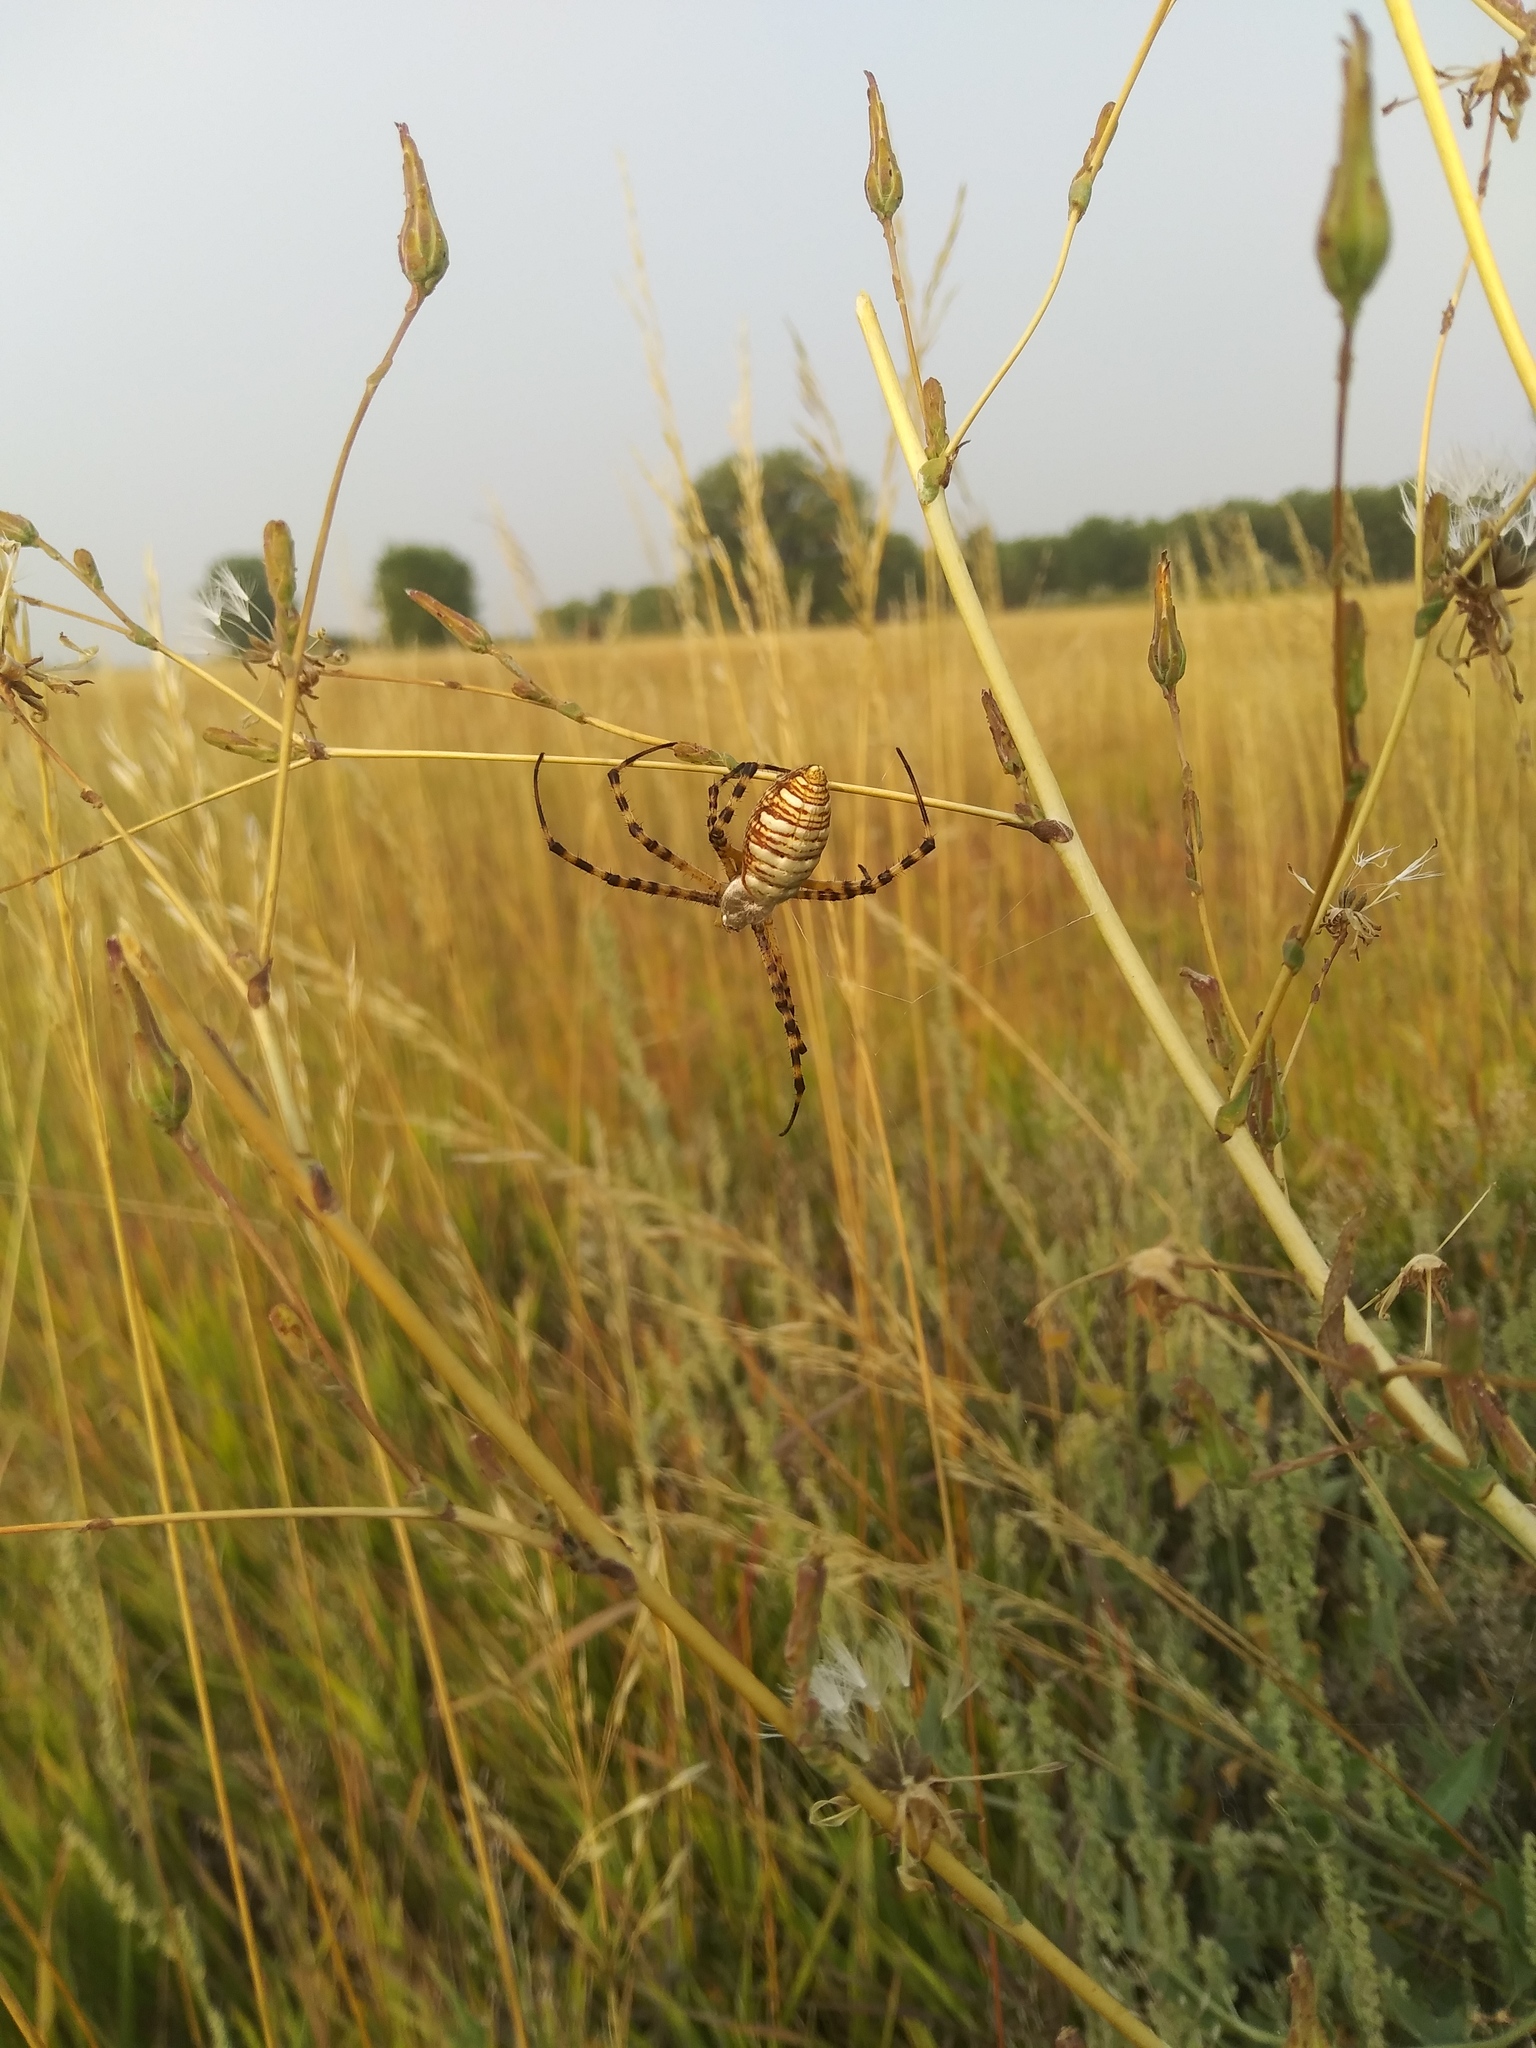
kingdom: Animalia
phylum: Arthropoda
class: Arachnida
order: Araneae
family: Araneidae
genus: Argiope
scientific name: Argiope trifasciata
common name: Banded garden spider
